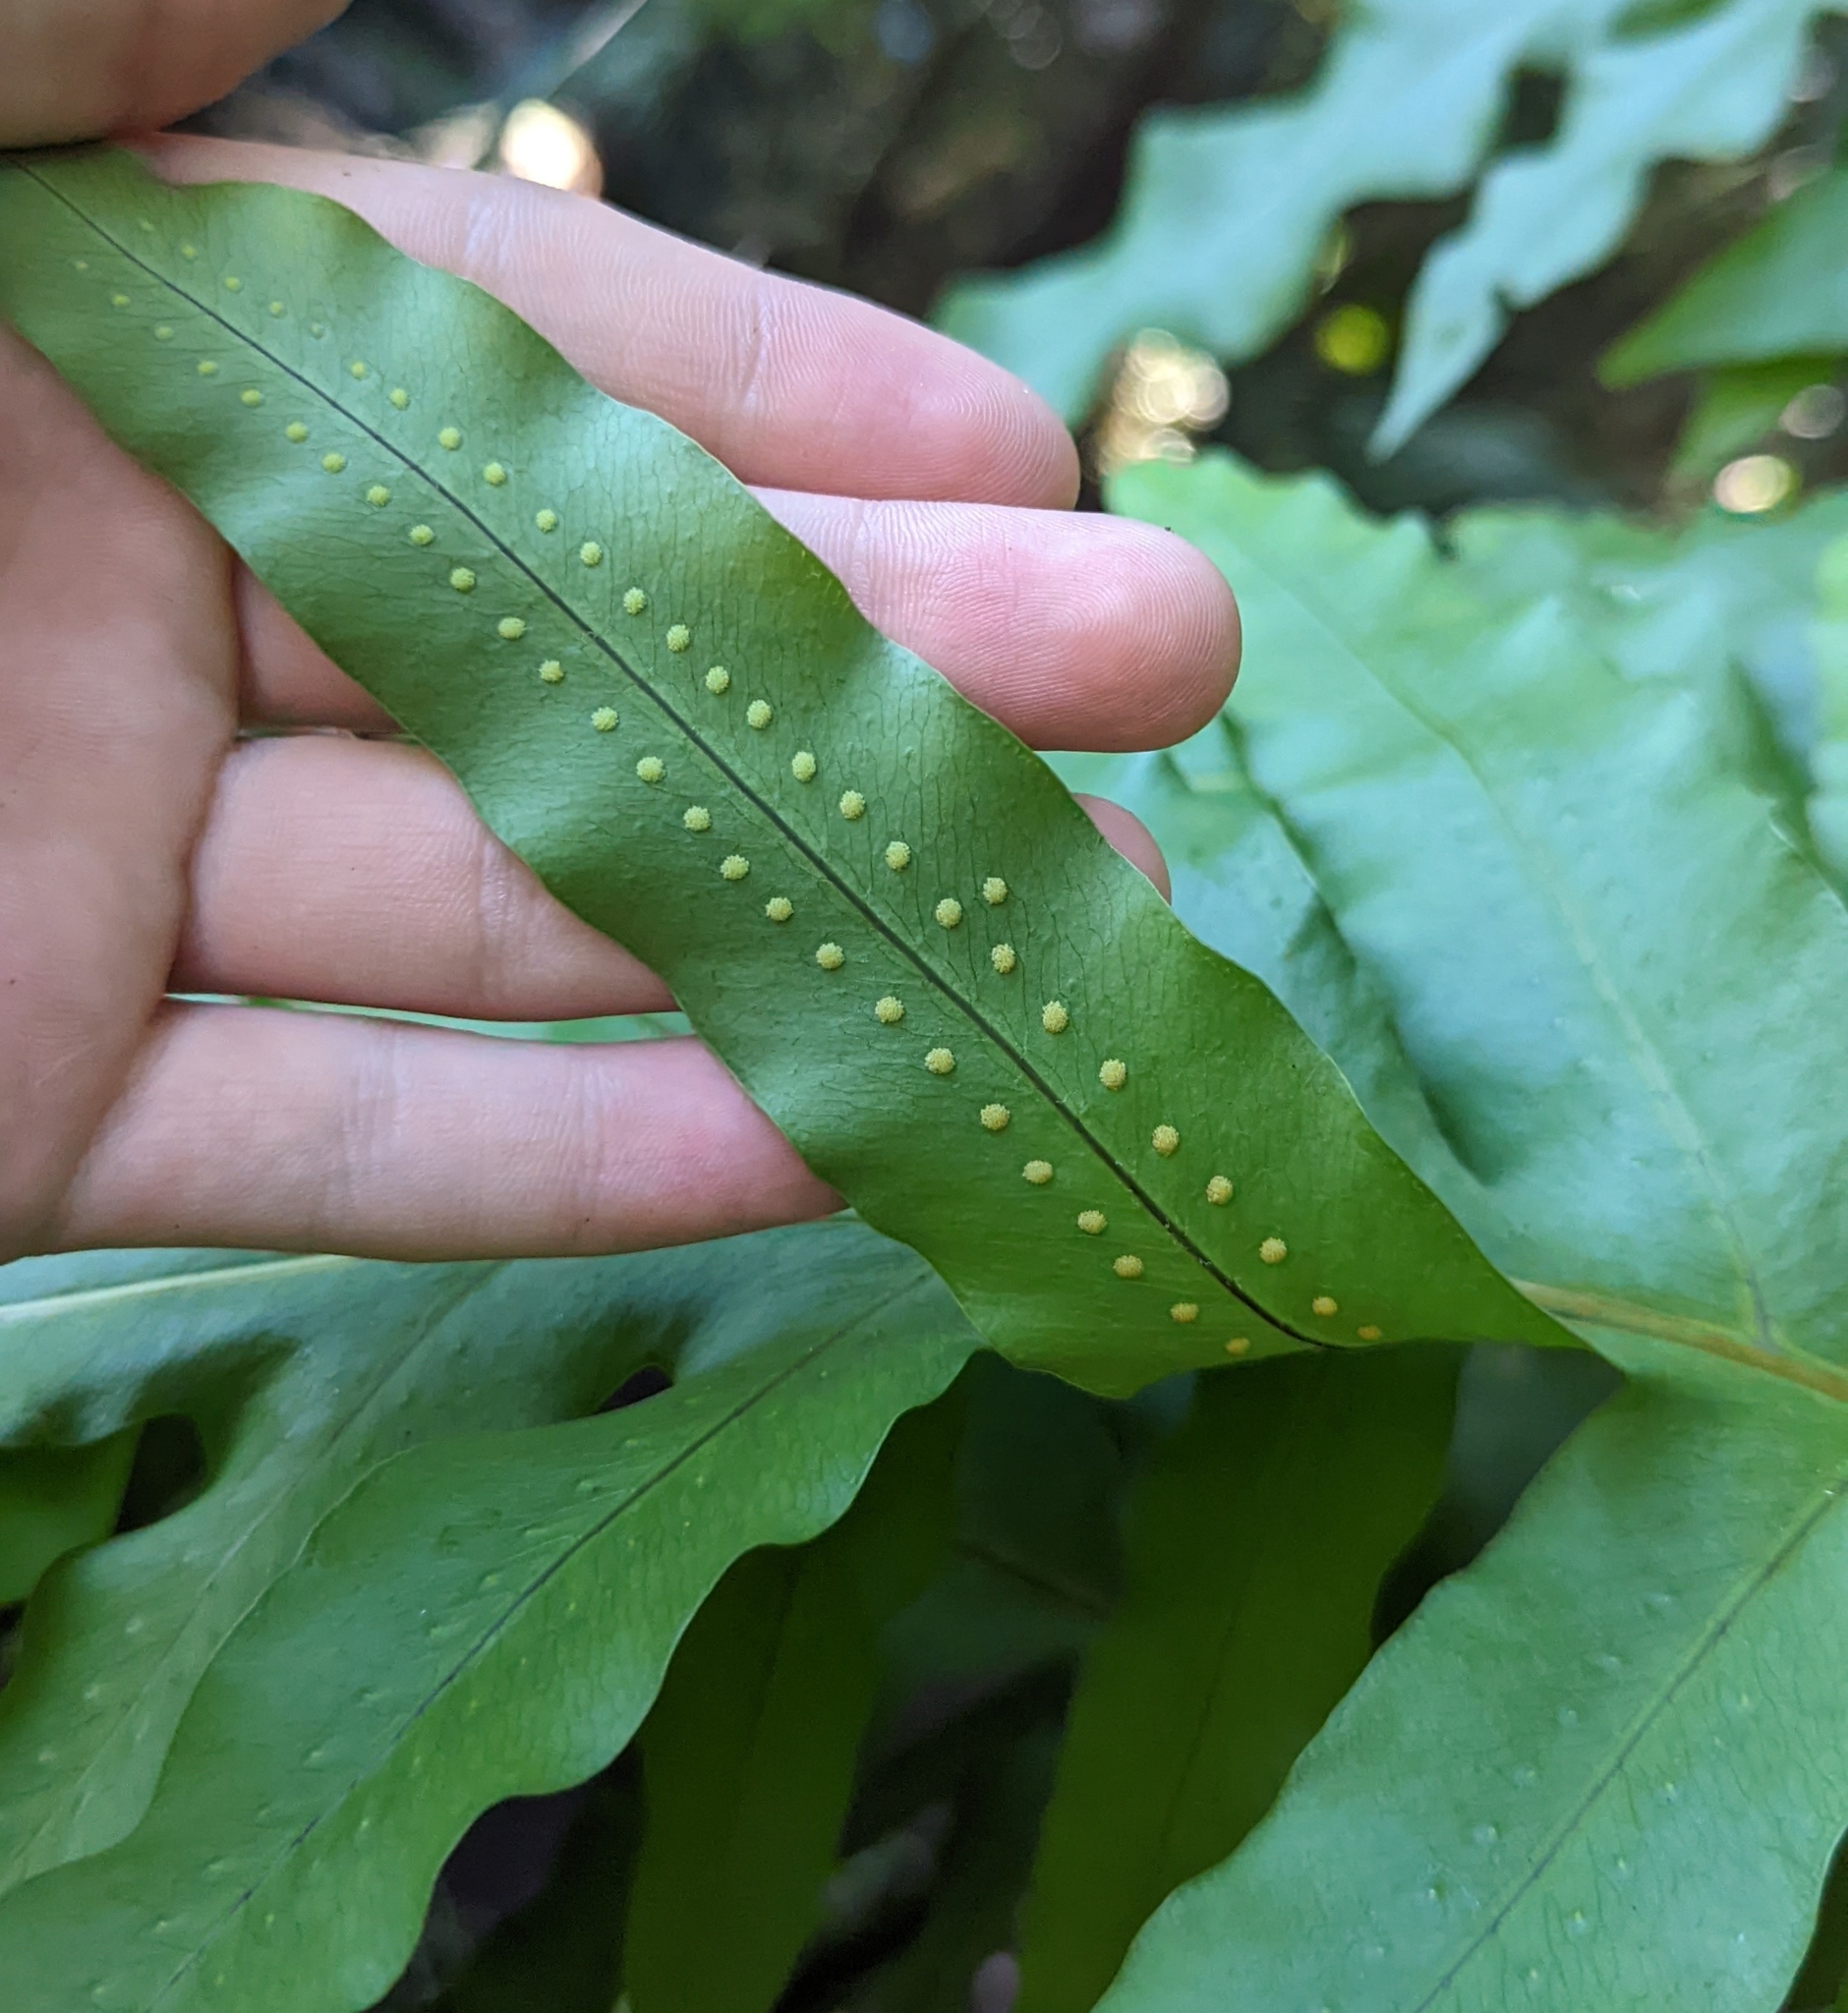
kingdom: Plantae
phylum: Tracheophyta
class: Polypodiopsida
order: Polypodiales
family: Polypodiaceae
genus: Phlebodium
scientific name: Phlebodium aureum
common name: Gold-foot fern
